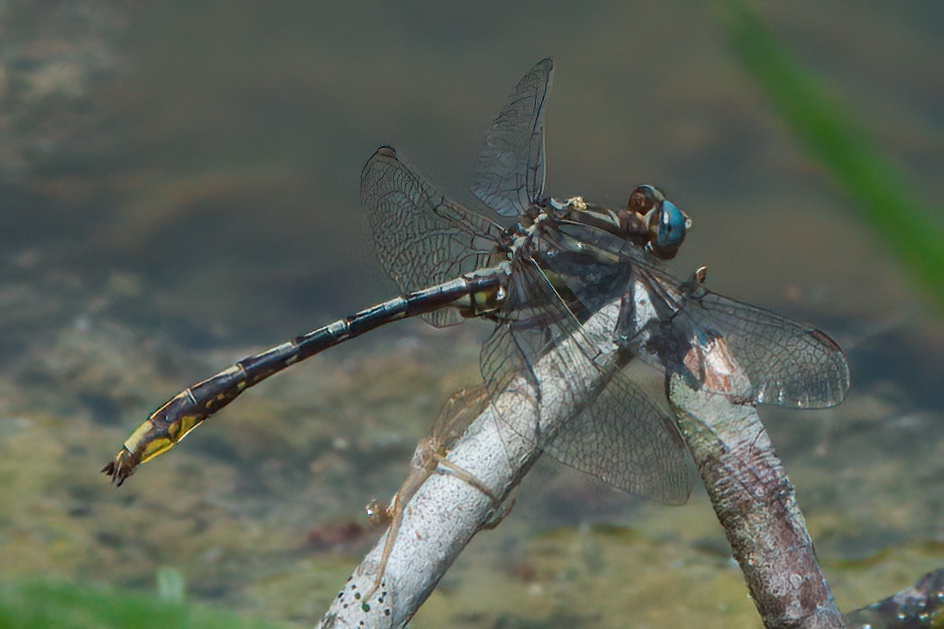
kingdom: Animalia
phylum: Arthropoda
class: Insecta
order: Odonata
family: Gomphidae
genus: Phanogomphus
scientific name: Phanogomphus exilis
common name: Lancet clubtail
